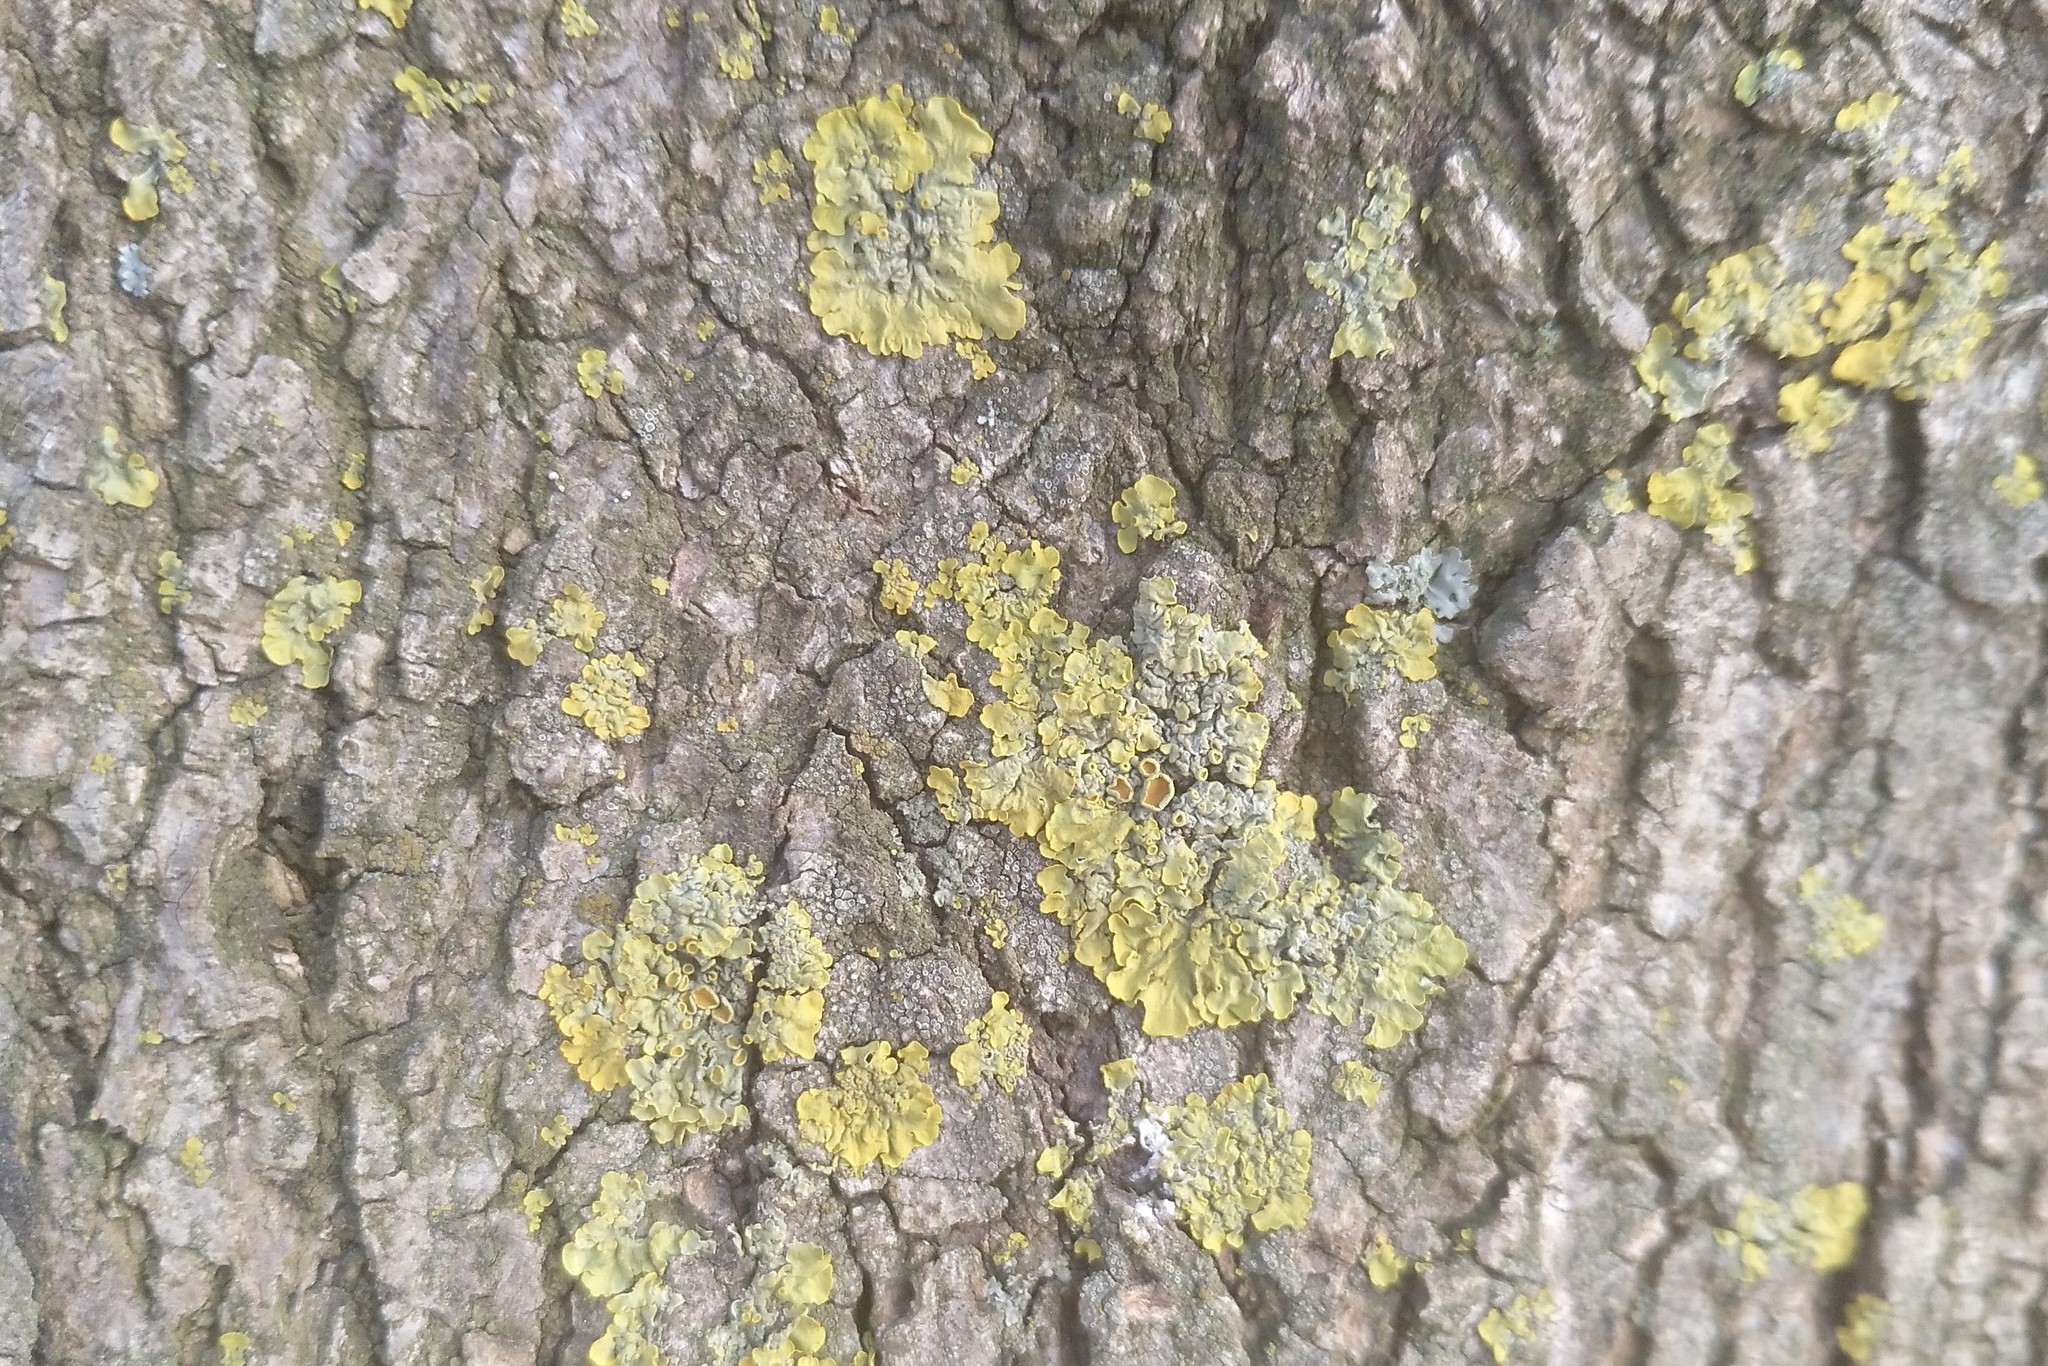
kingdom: Fungi
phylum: Ascomycota
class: Lecanoromycetes
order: Teloschistales
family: Teloschistaceae
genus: Xanthoria
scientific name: Xanthoria parietina
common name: Common orange lichen
